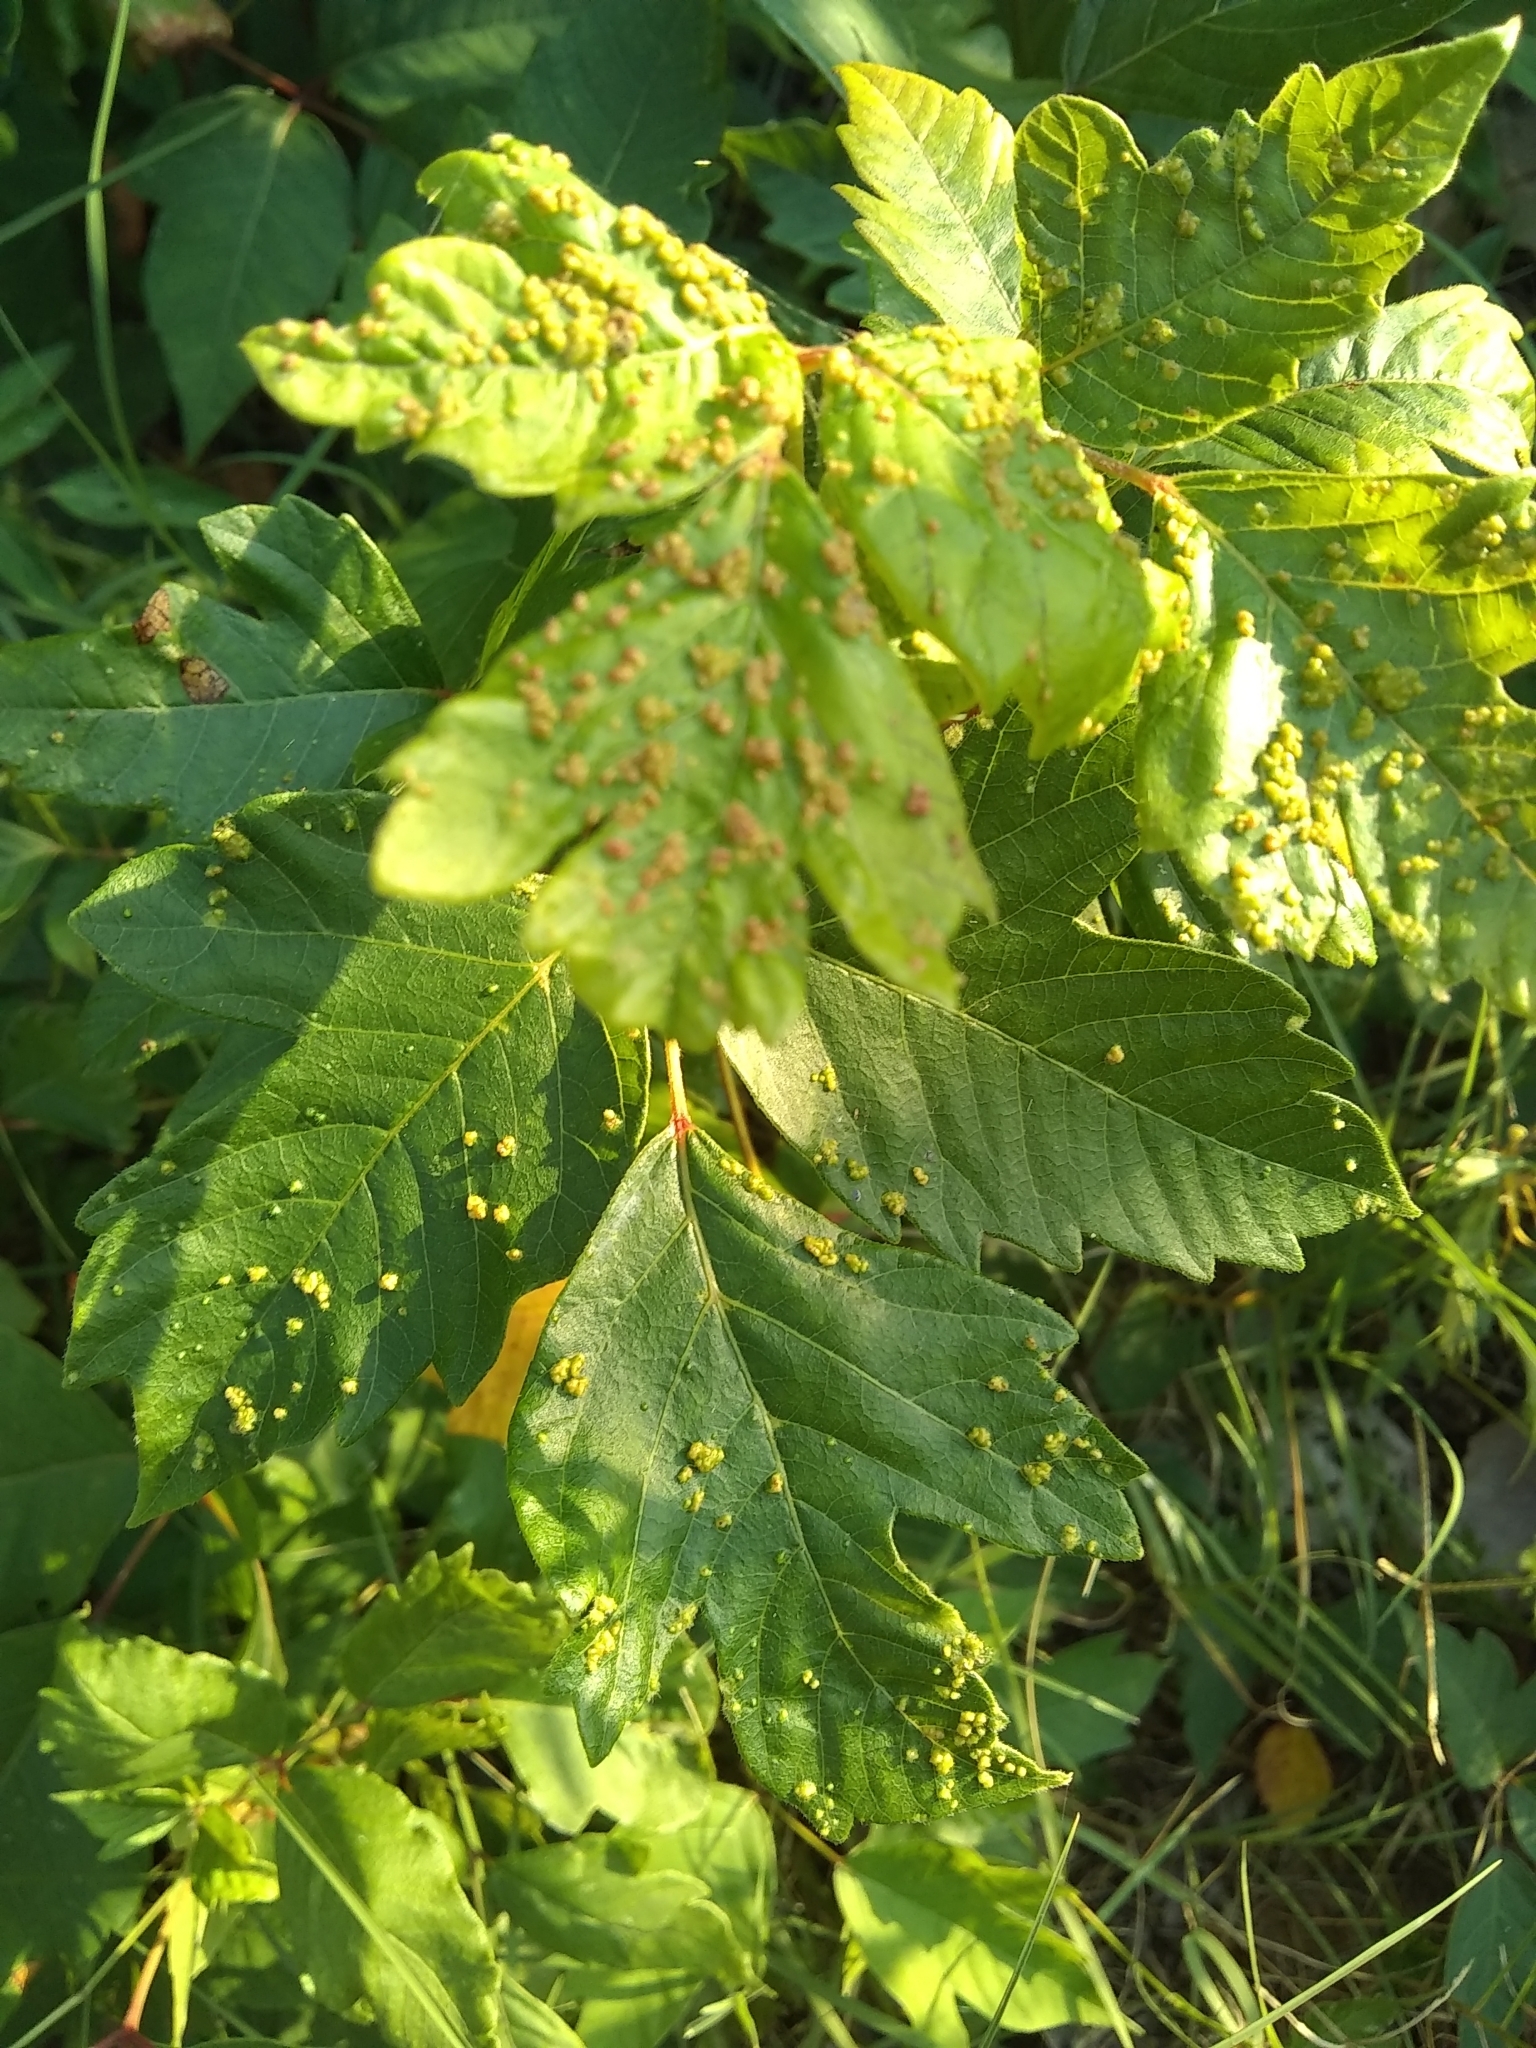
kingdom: Animalia
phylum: Arthropoda
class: Arachnida
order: Trombidiformes
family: Eriophyidae
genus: Aculops
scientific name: Aculops
